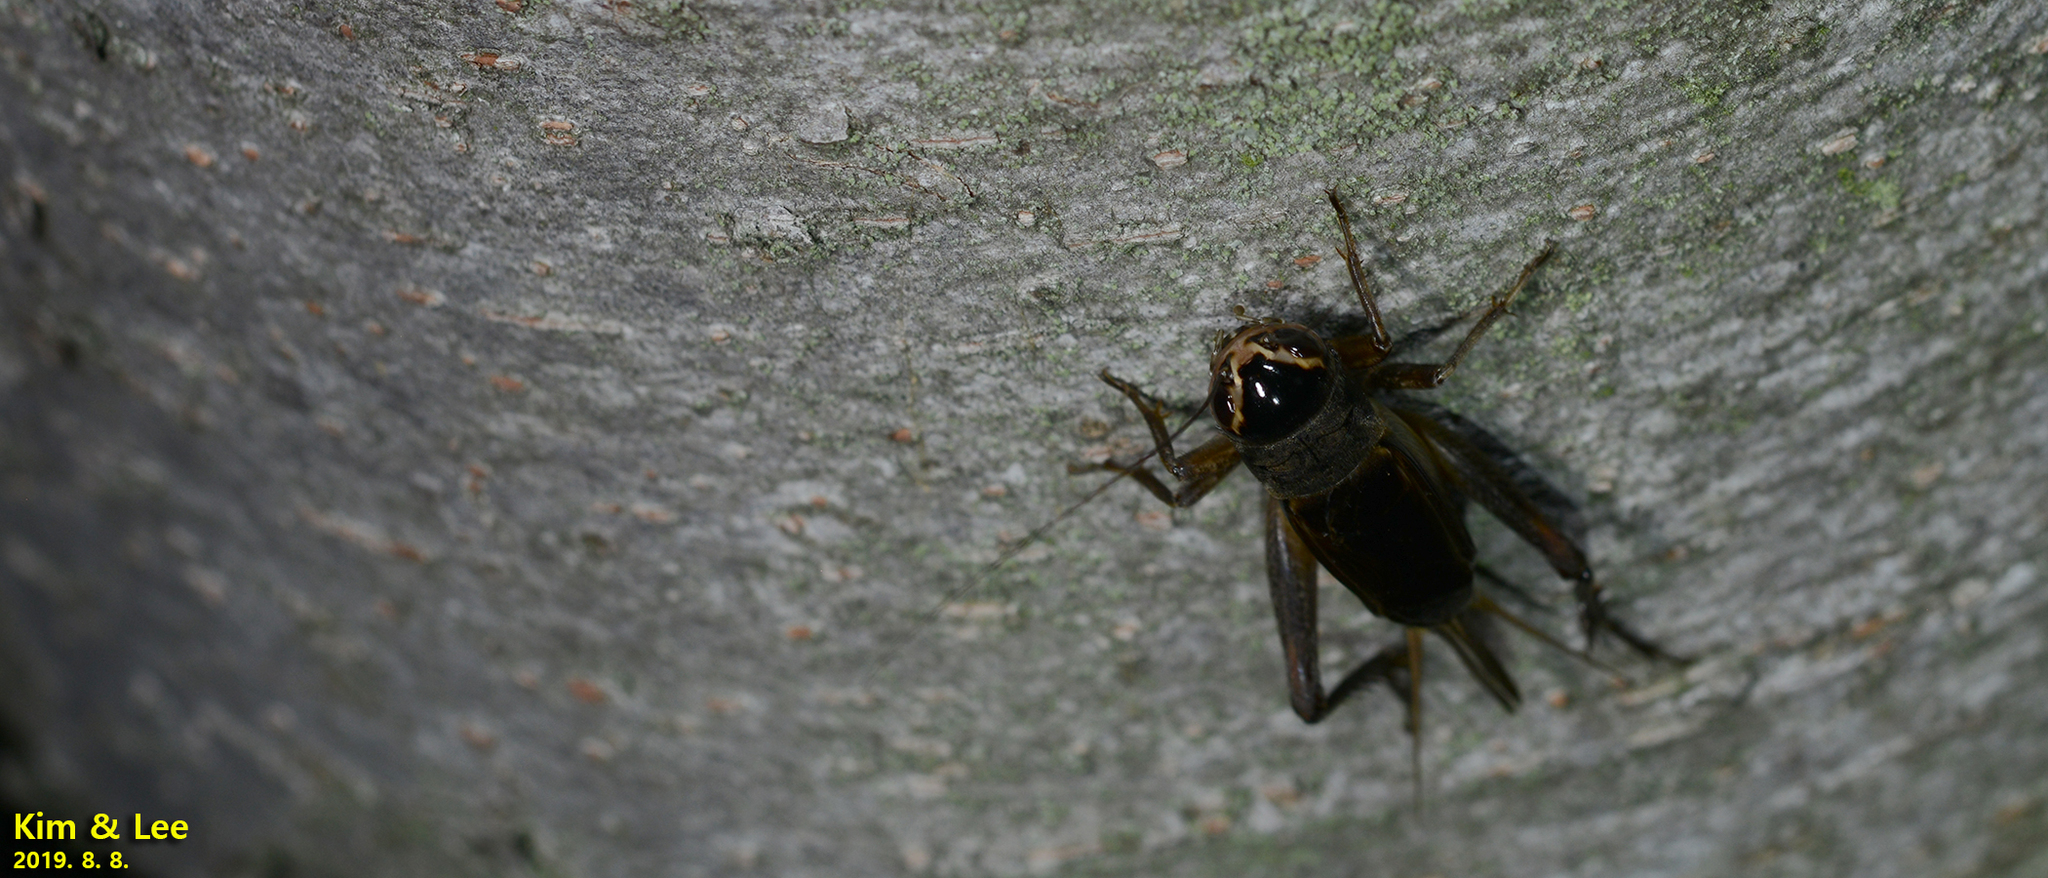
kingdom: Animalia
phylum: Arthropoda
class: Insecta
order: Orthoptera
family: Gryllidae
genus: Teleogryllus
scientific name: Teleogryllus emma
